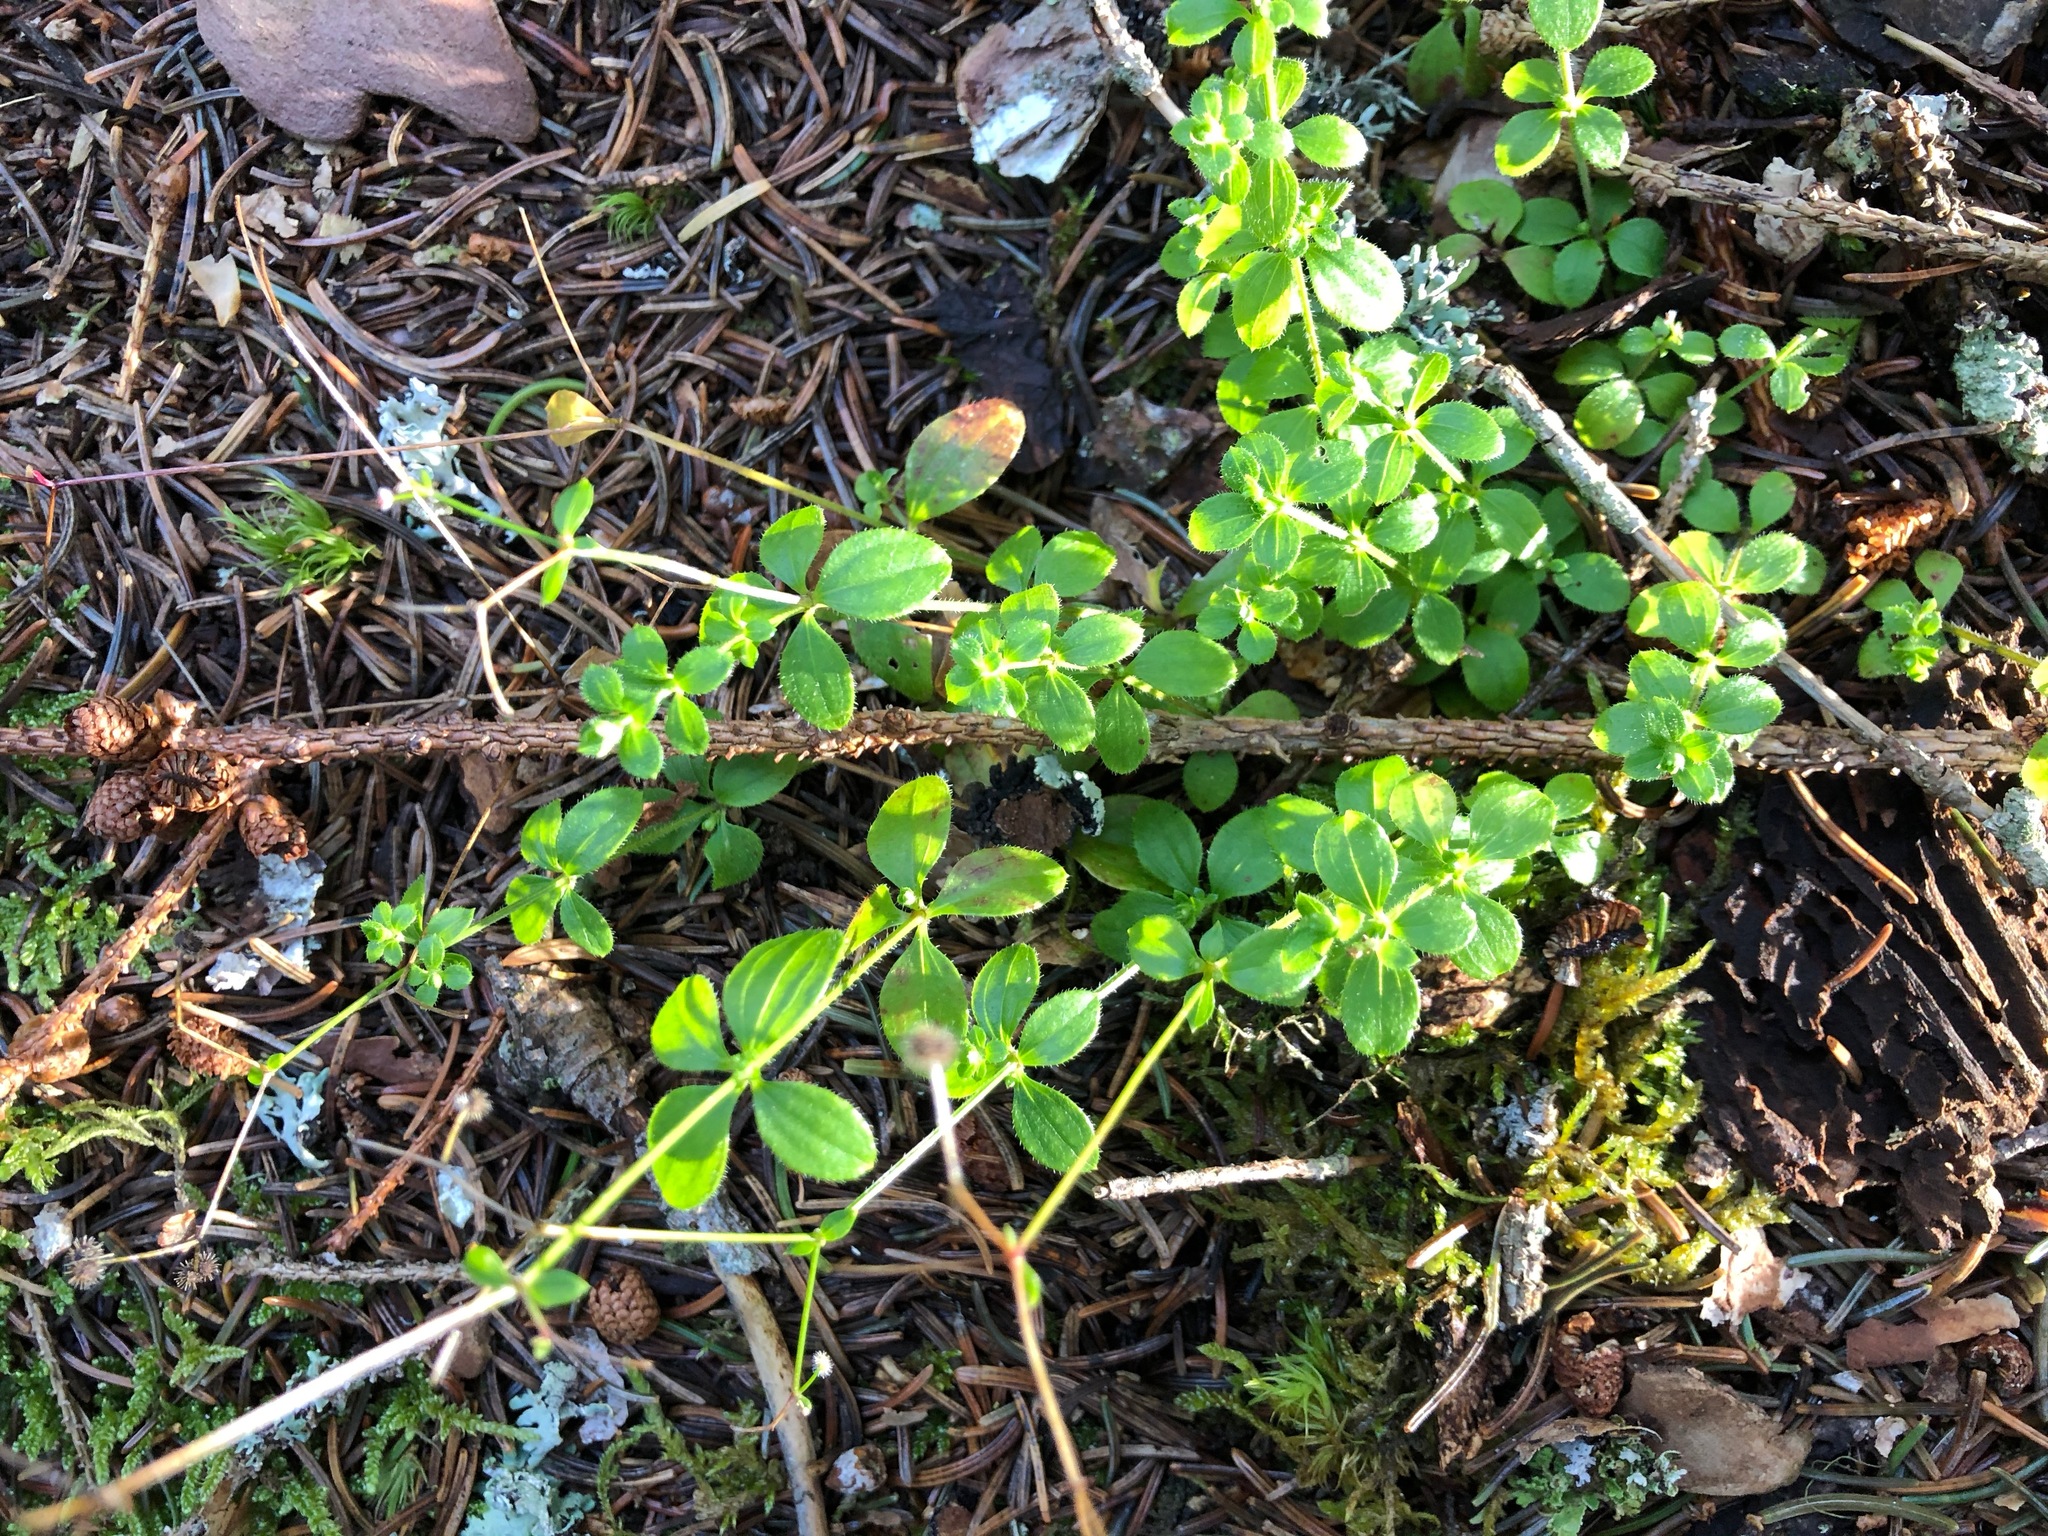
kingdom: Plantae
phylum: Tracheophyta
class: Magnoliopsida
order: Gentianales
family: Rubiaceae
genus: Galium
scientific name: Galium rotundifolium
